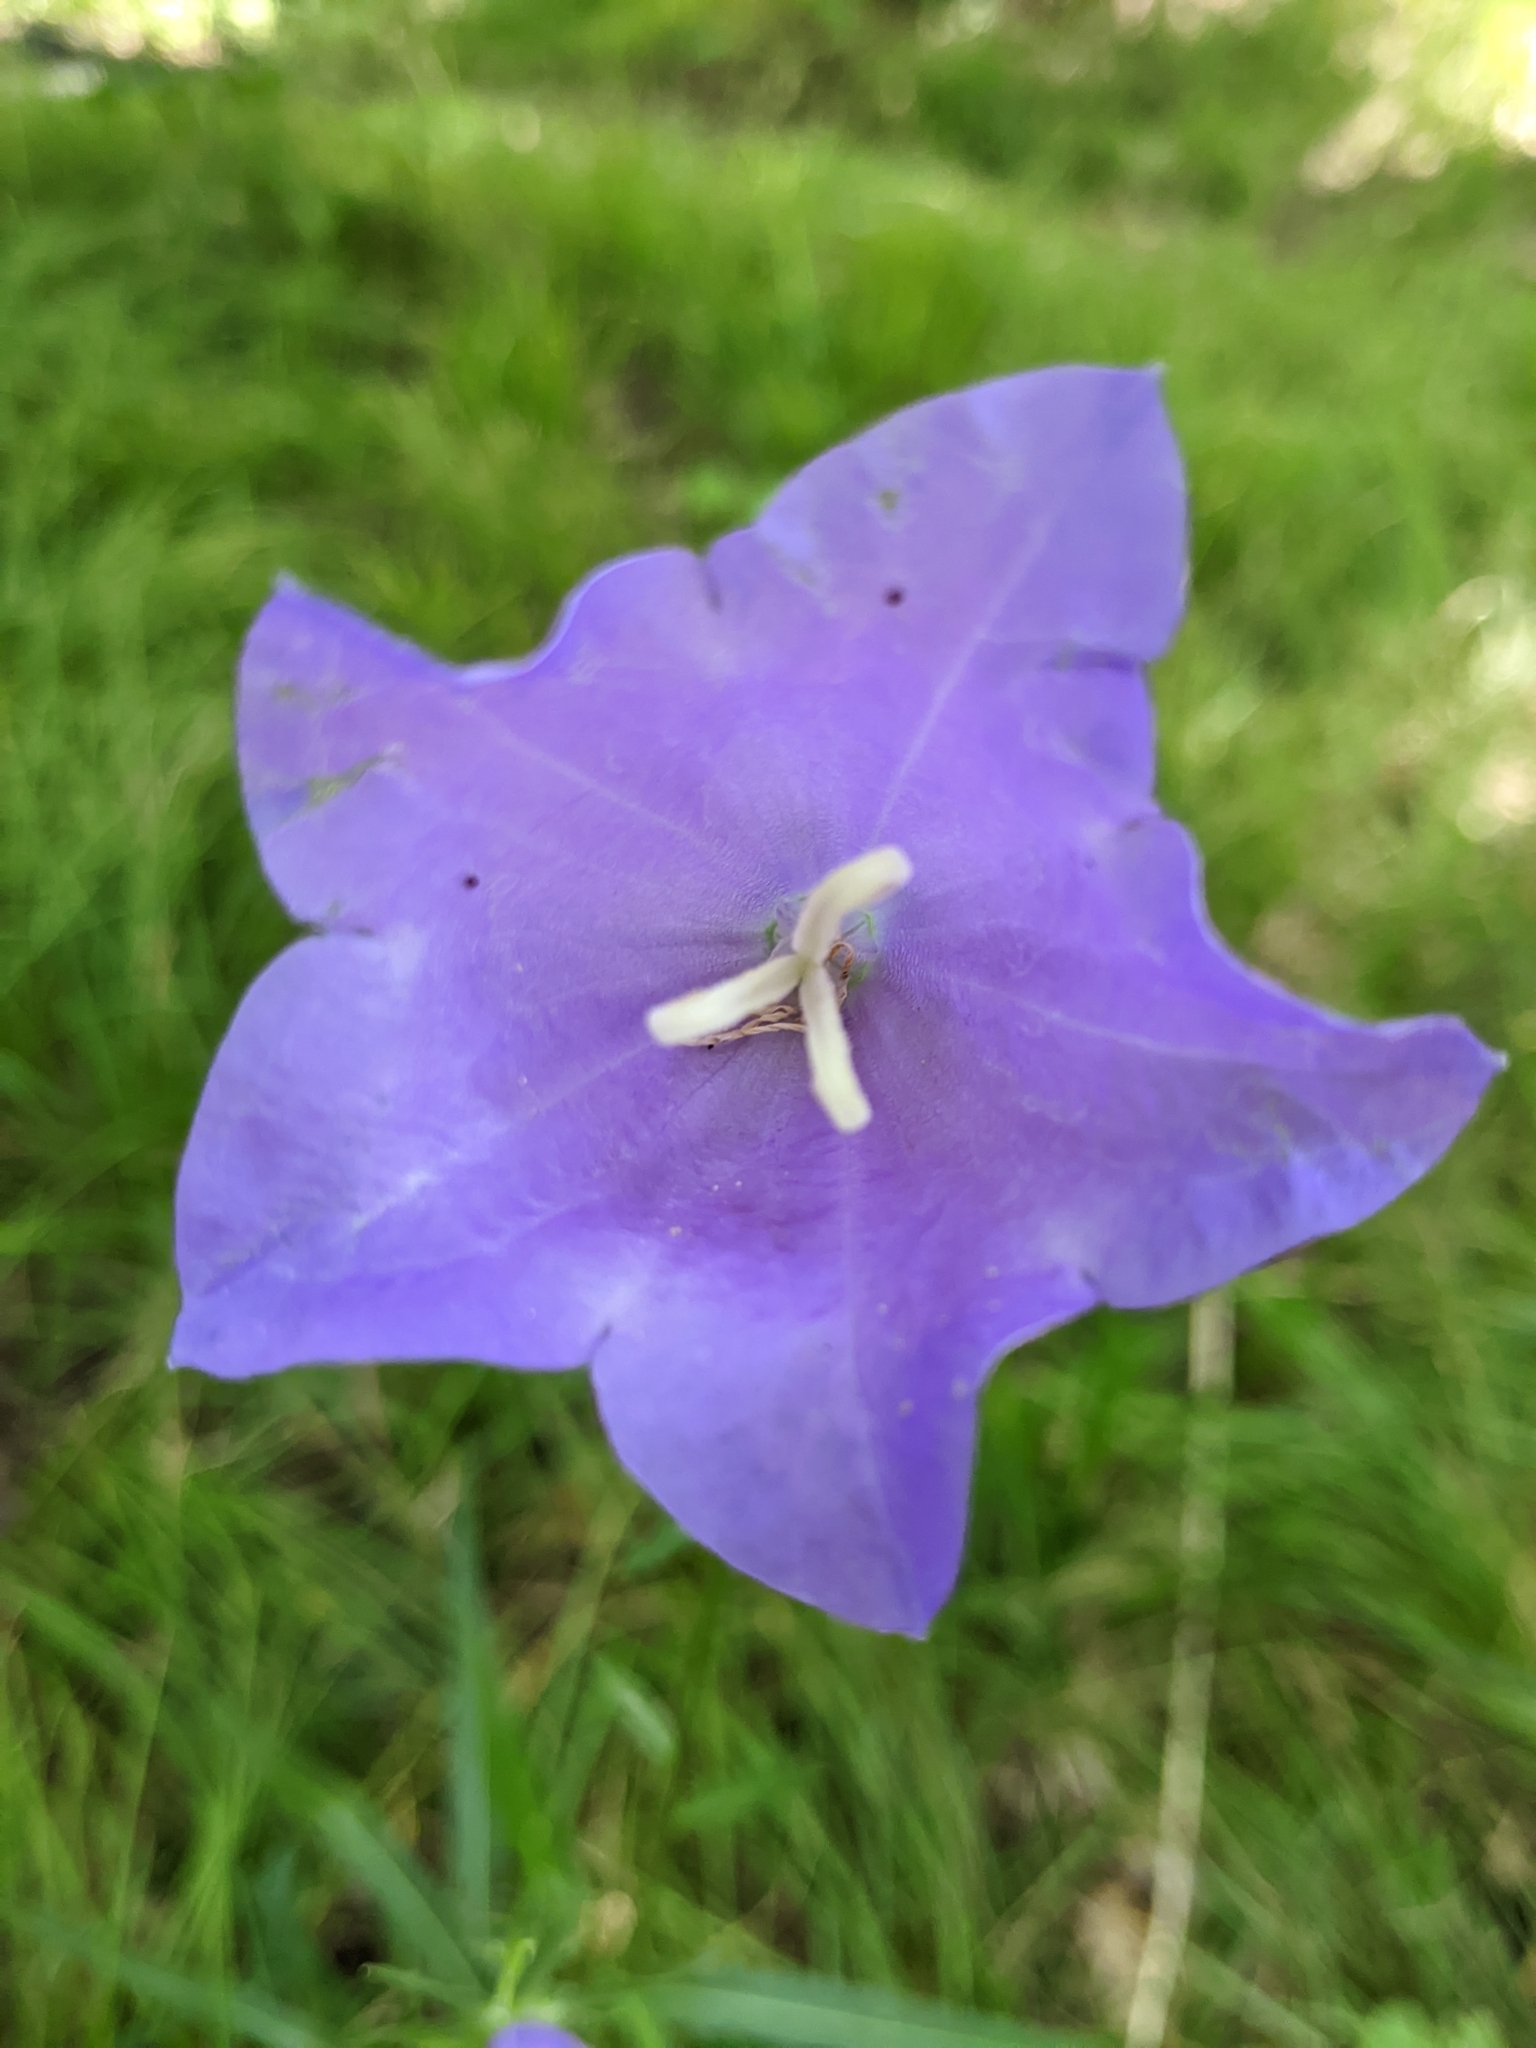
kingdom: Plantae
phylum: Tracheophyta
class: Magnoliopsida
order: Asterales
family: Campanulaceae
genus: Campanula
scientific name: Campanula persicifolia
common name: Peach-leaved bellflower
